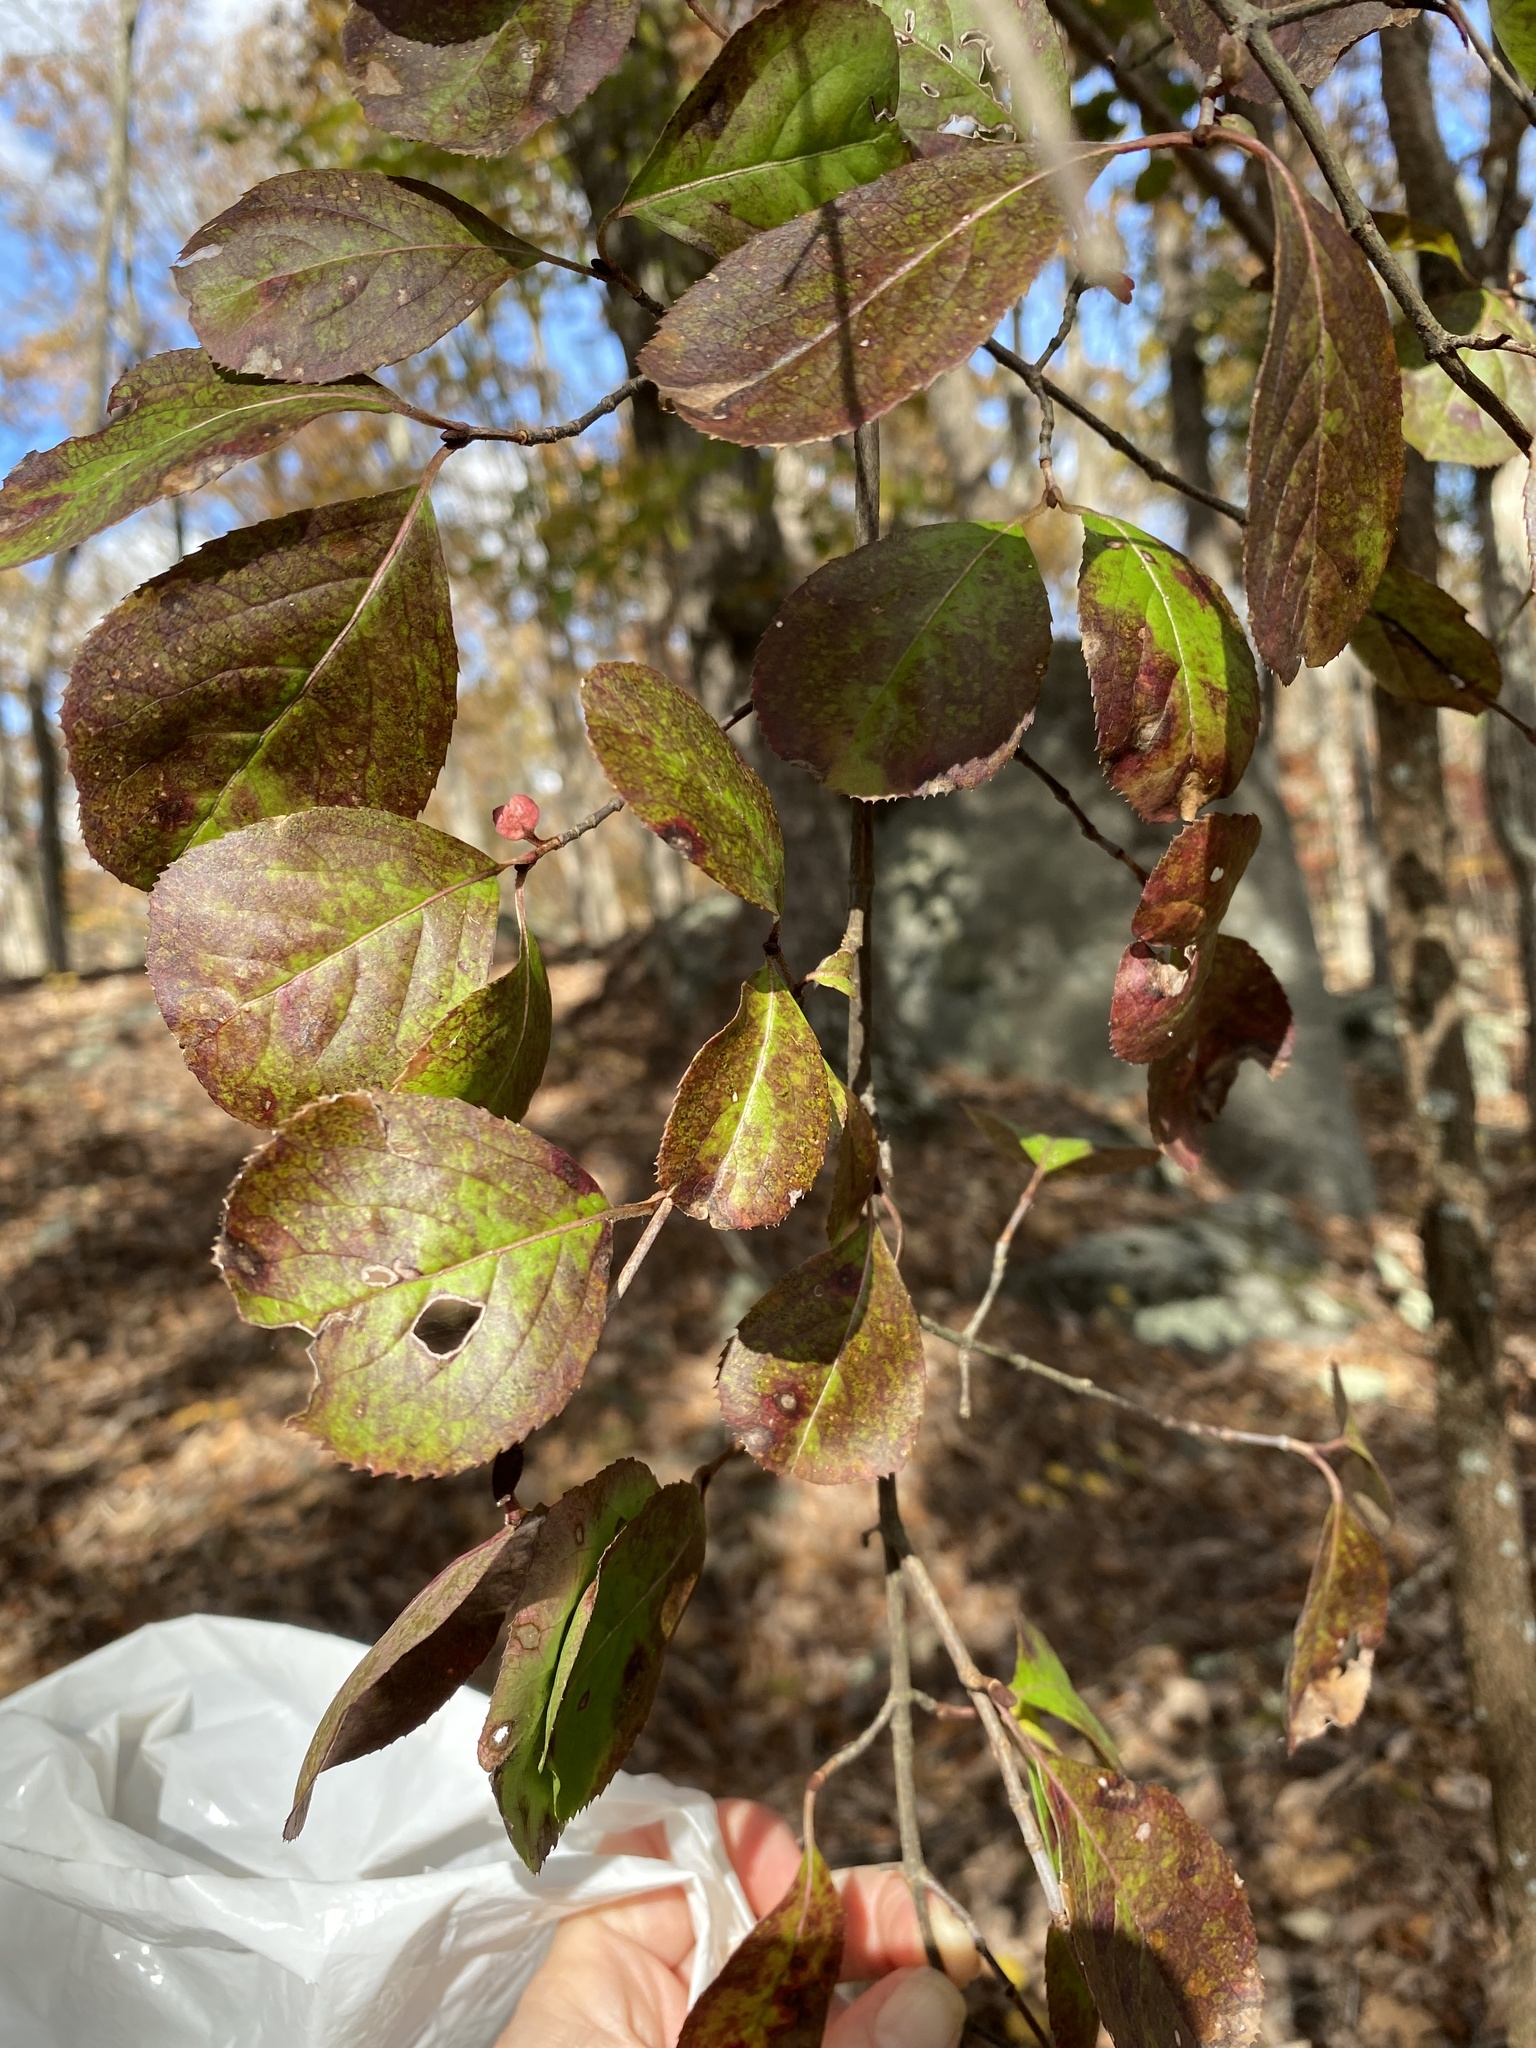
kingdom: Plantae
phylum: Tracheophyta
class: Magnoliopsida
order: Dipsacales
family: Viburnaceae
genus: Viburnum
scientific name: Viburnum rufidulum
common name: Blue haw
